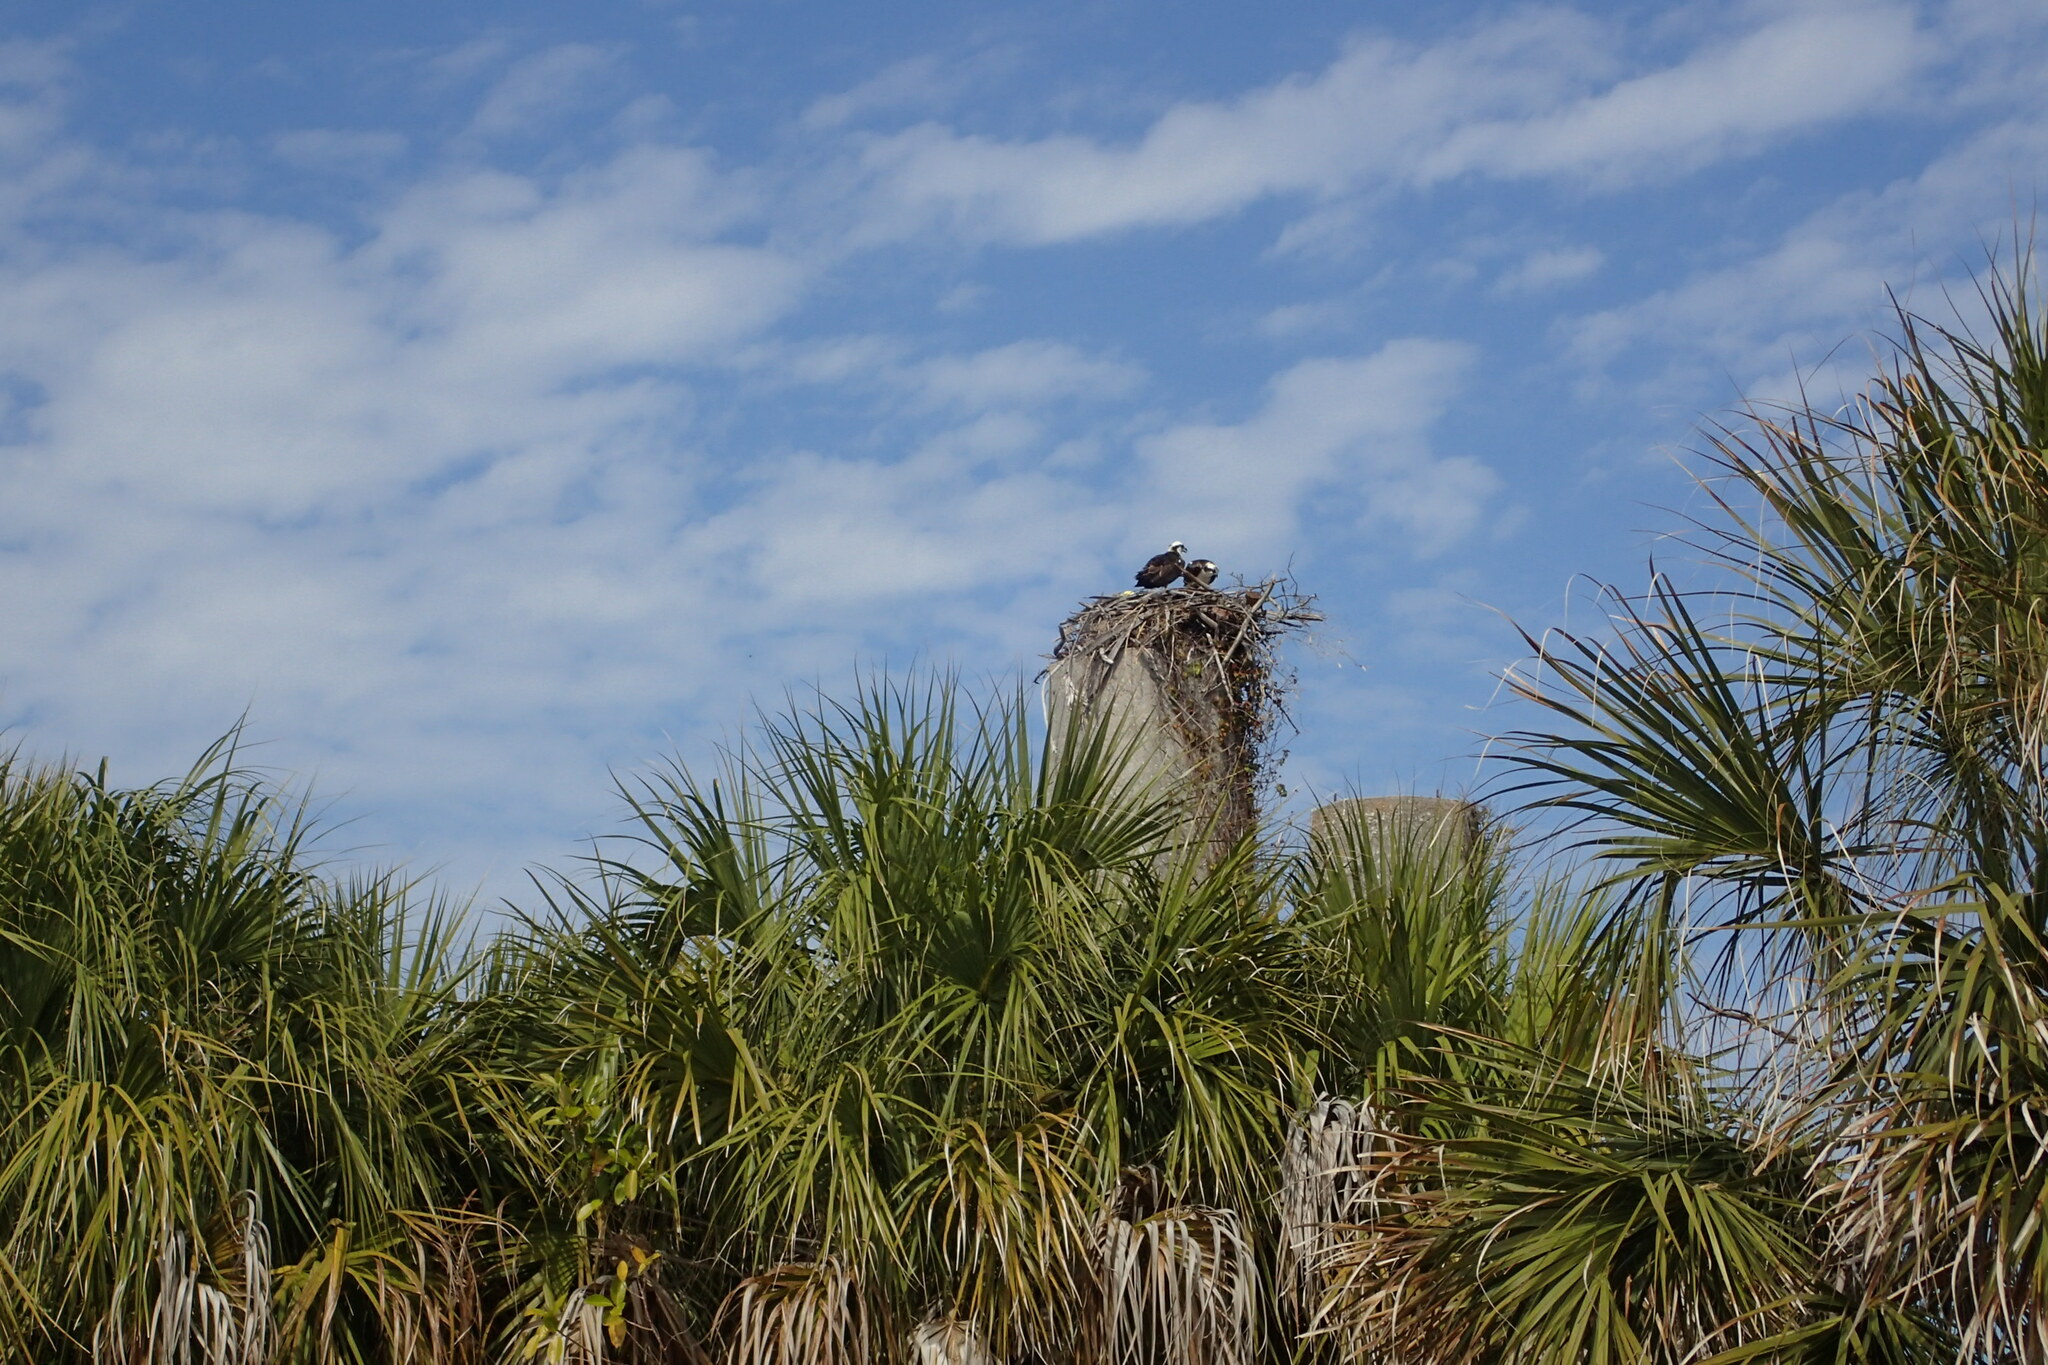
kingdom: Animalia
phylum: Chordata
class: Aves
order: Accipitriformes
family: Pandionidae
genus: Pandion
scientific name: Pandion haliaetus
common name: Osprey
